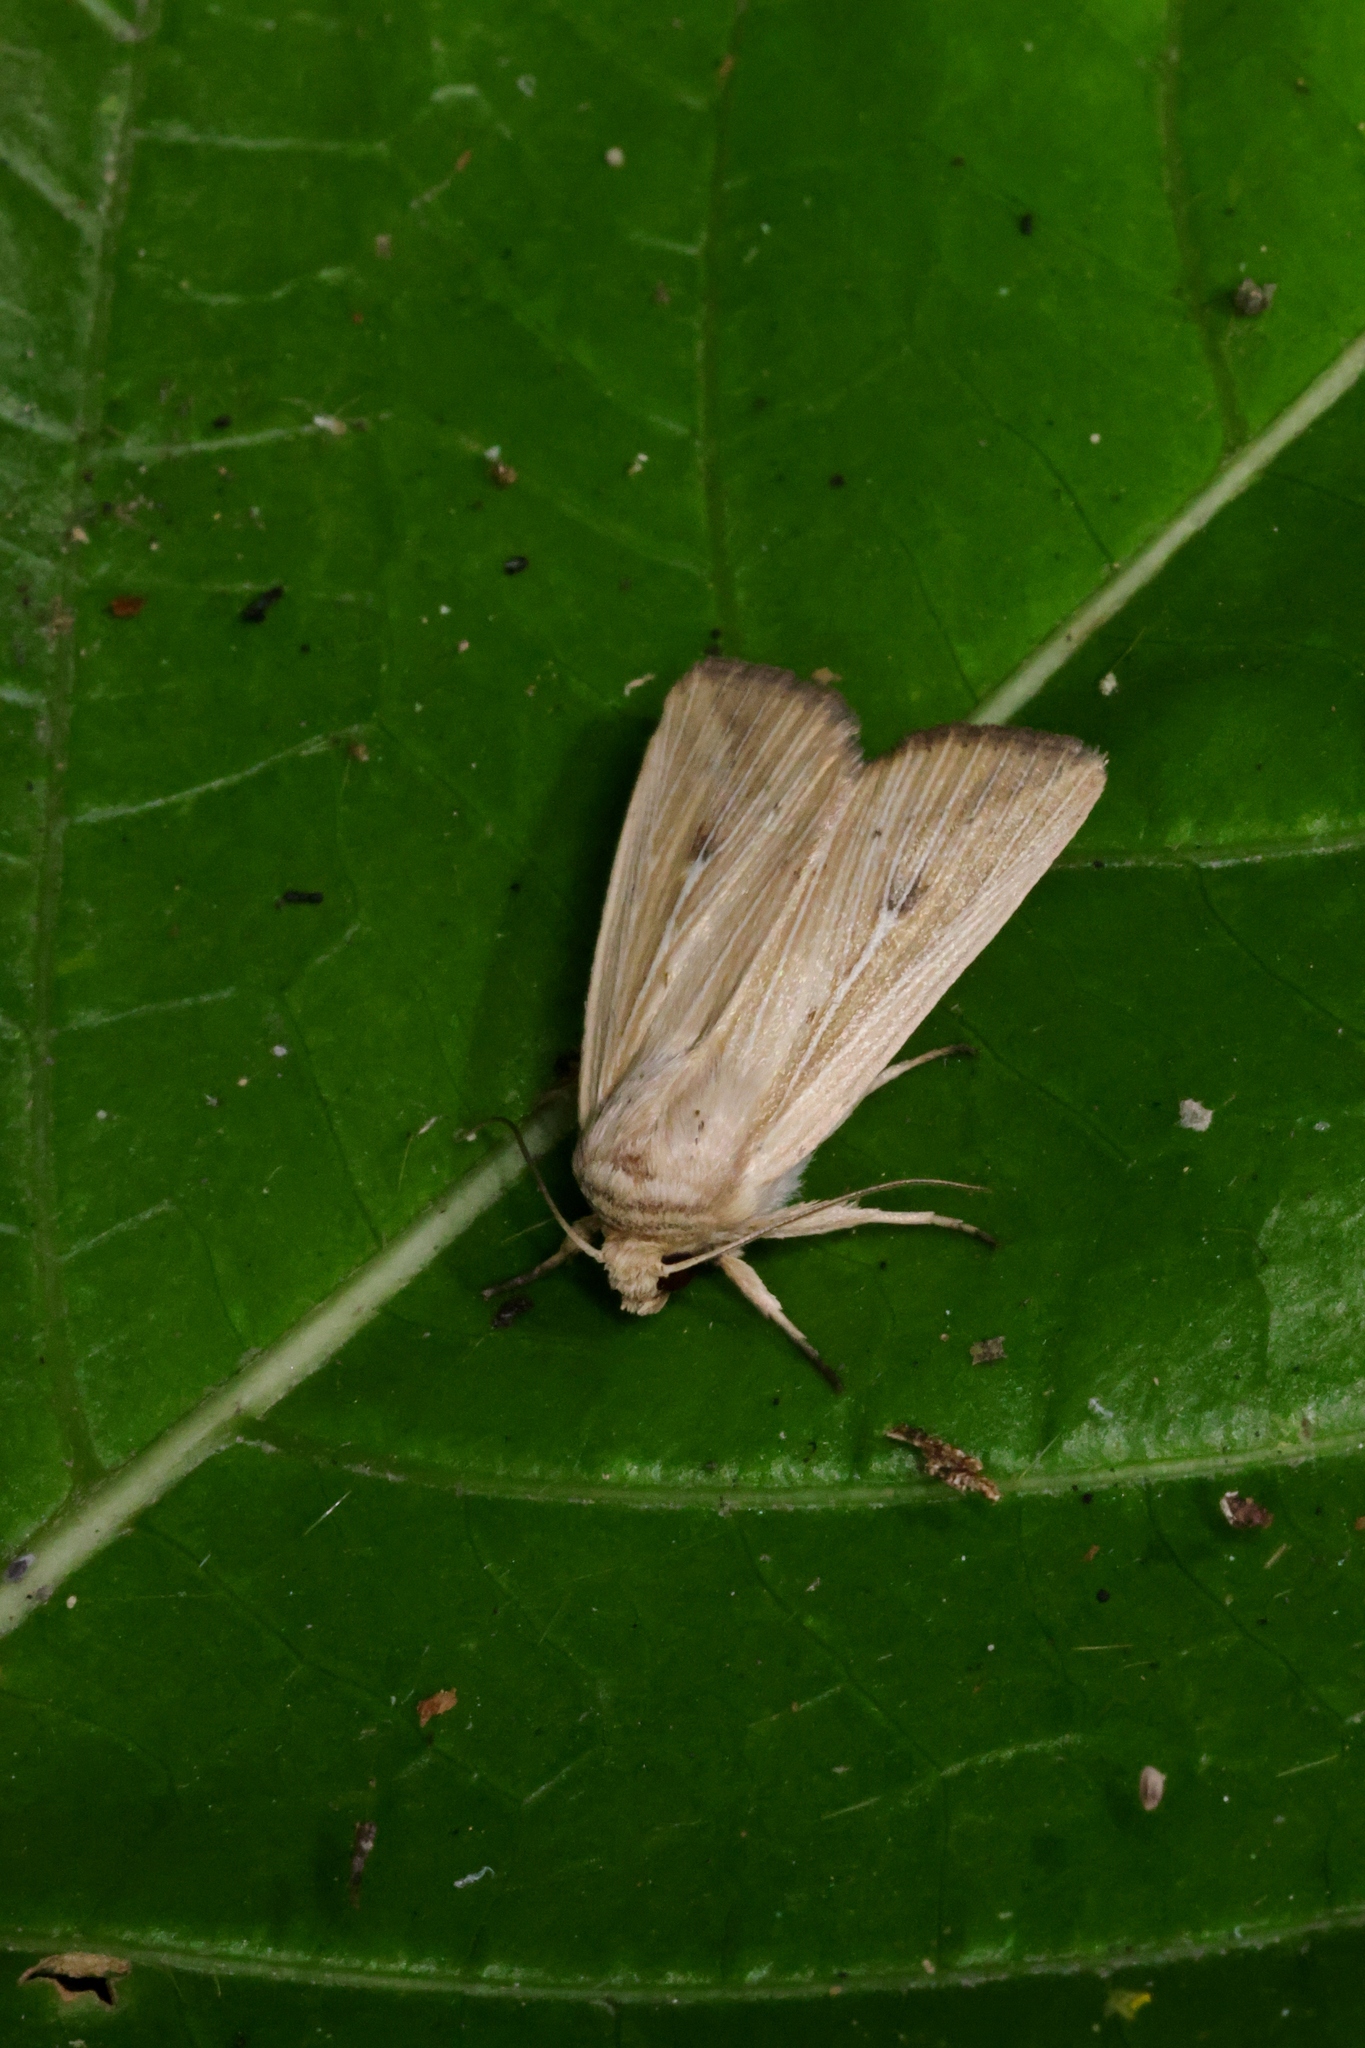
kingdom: Animalia
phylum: Arthropoda
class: Insecta
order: Lepidoptera
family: Noctuidae
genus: Leucania
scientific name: Leucania roseilinea
